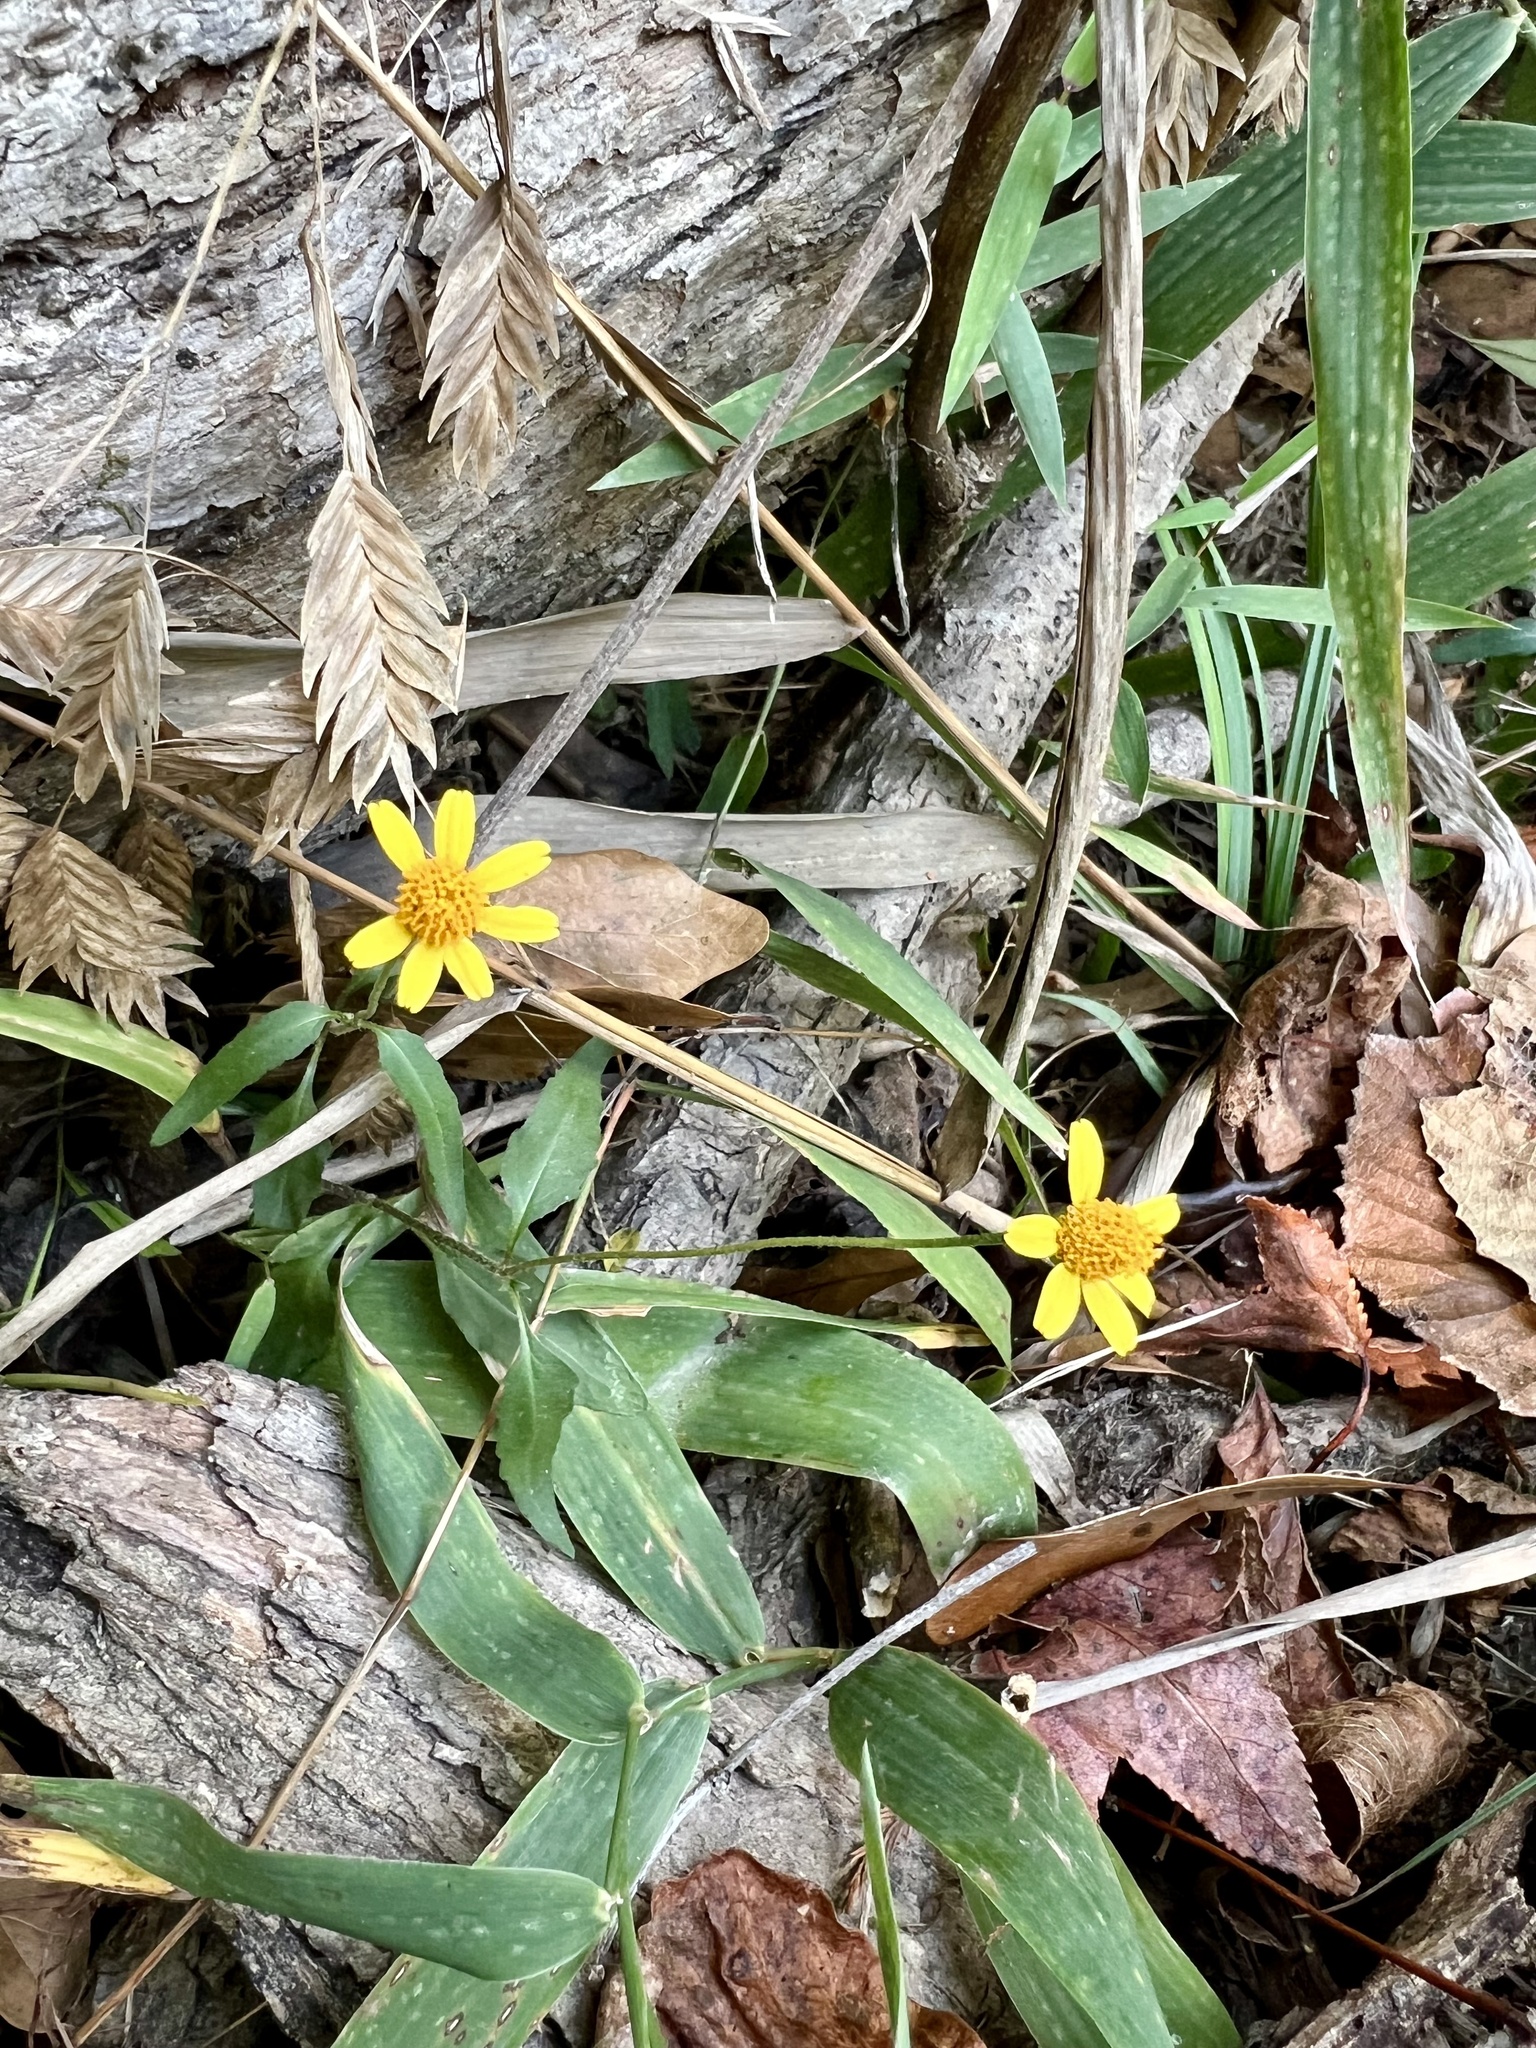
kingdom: Plantae
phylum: Tracheophyta
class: Magnoliopsida
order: Asterales
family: Asteraceae
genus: Acmella
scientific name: Acmella repens
